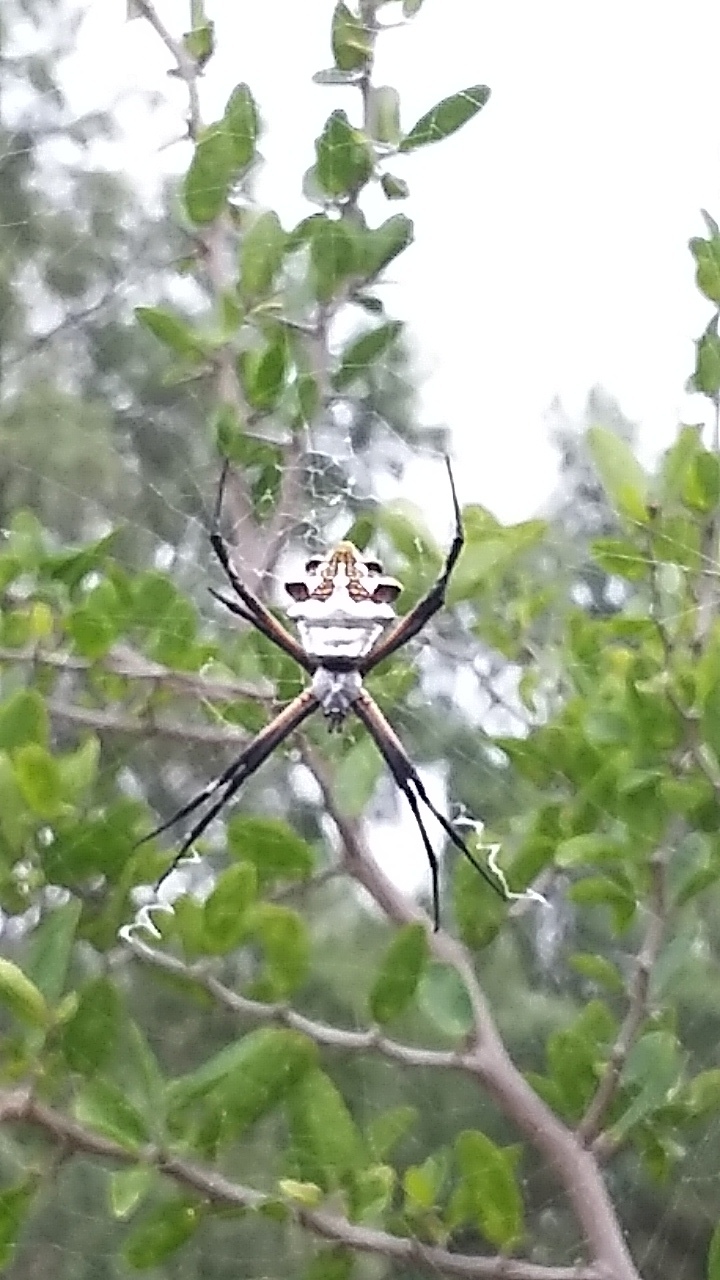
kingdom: Animalia
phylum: Arthropoda
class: Arachnida
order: Araneae
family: Araneidae
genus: Argiope
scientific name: Argiope argentata
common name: Orb weavers
